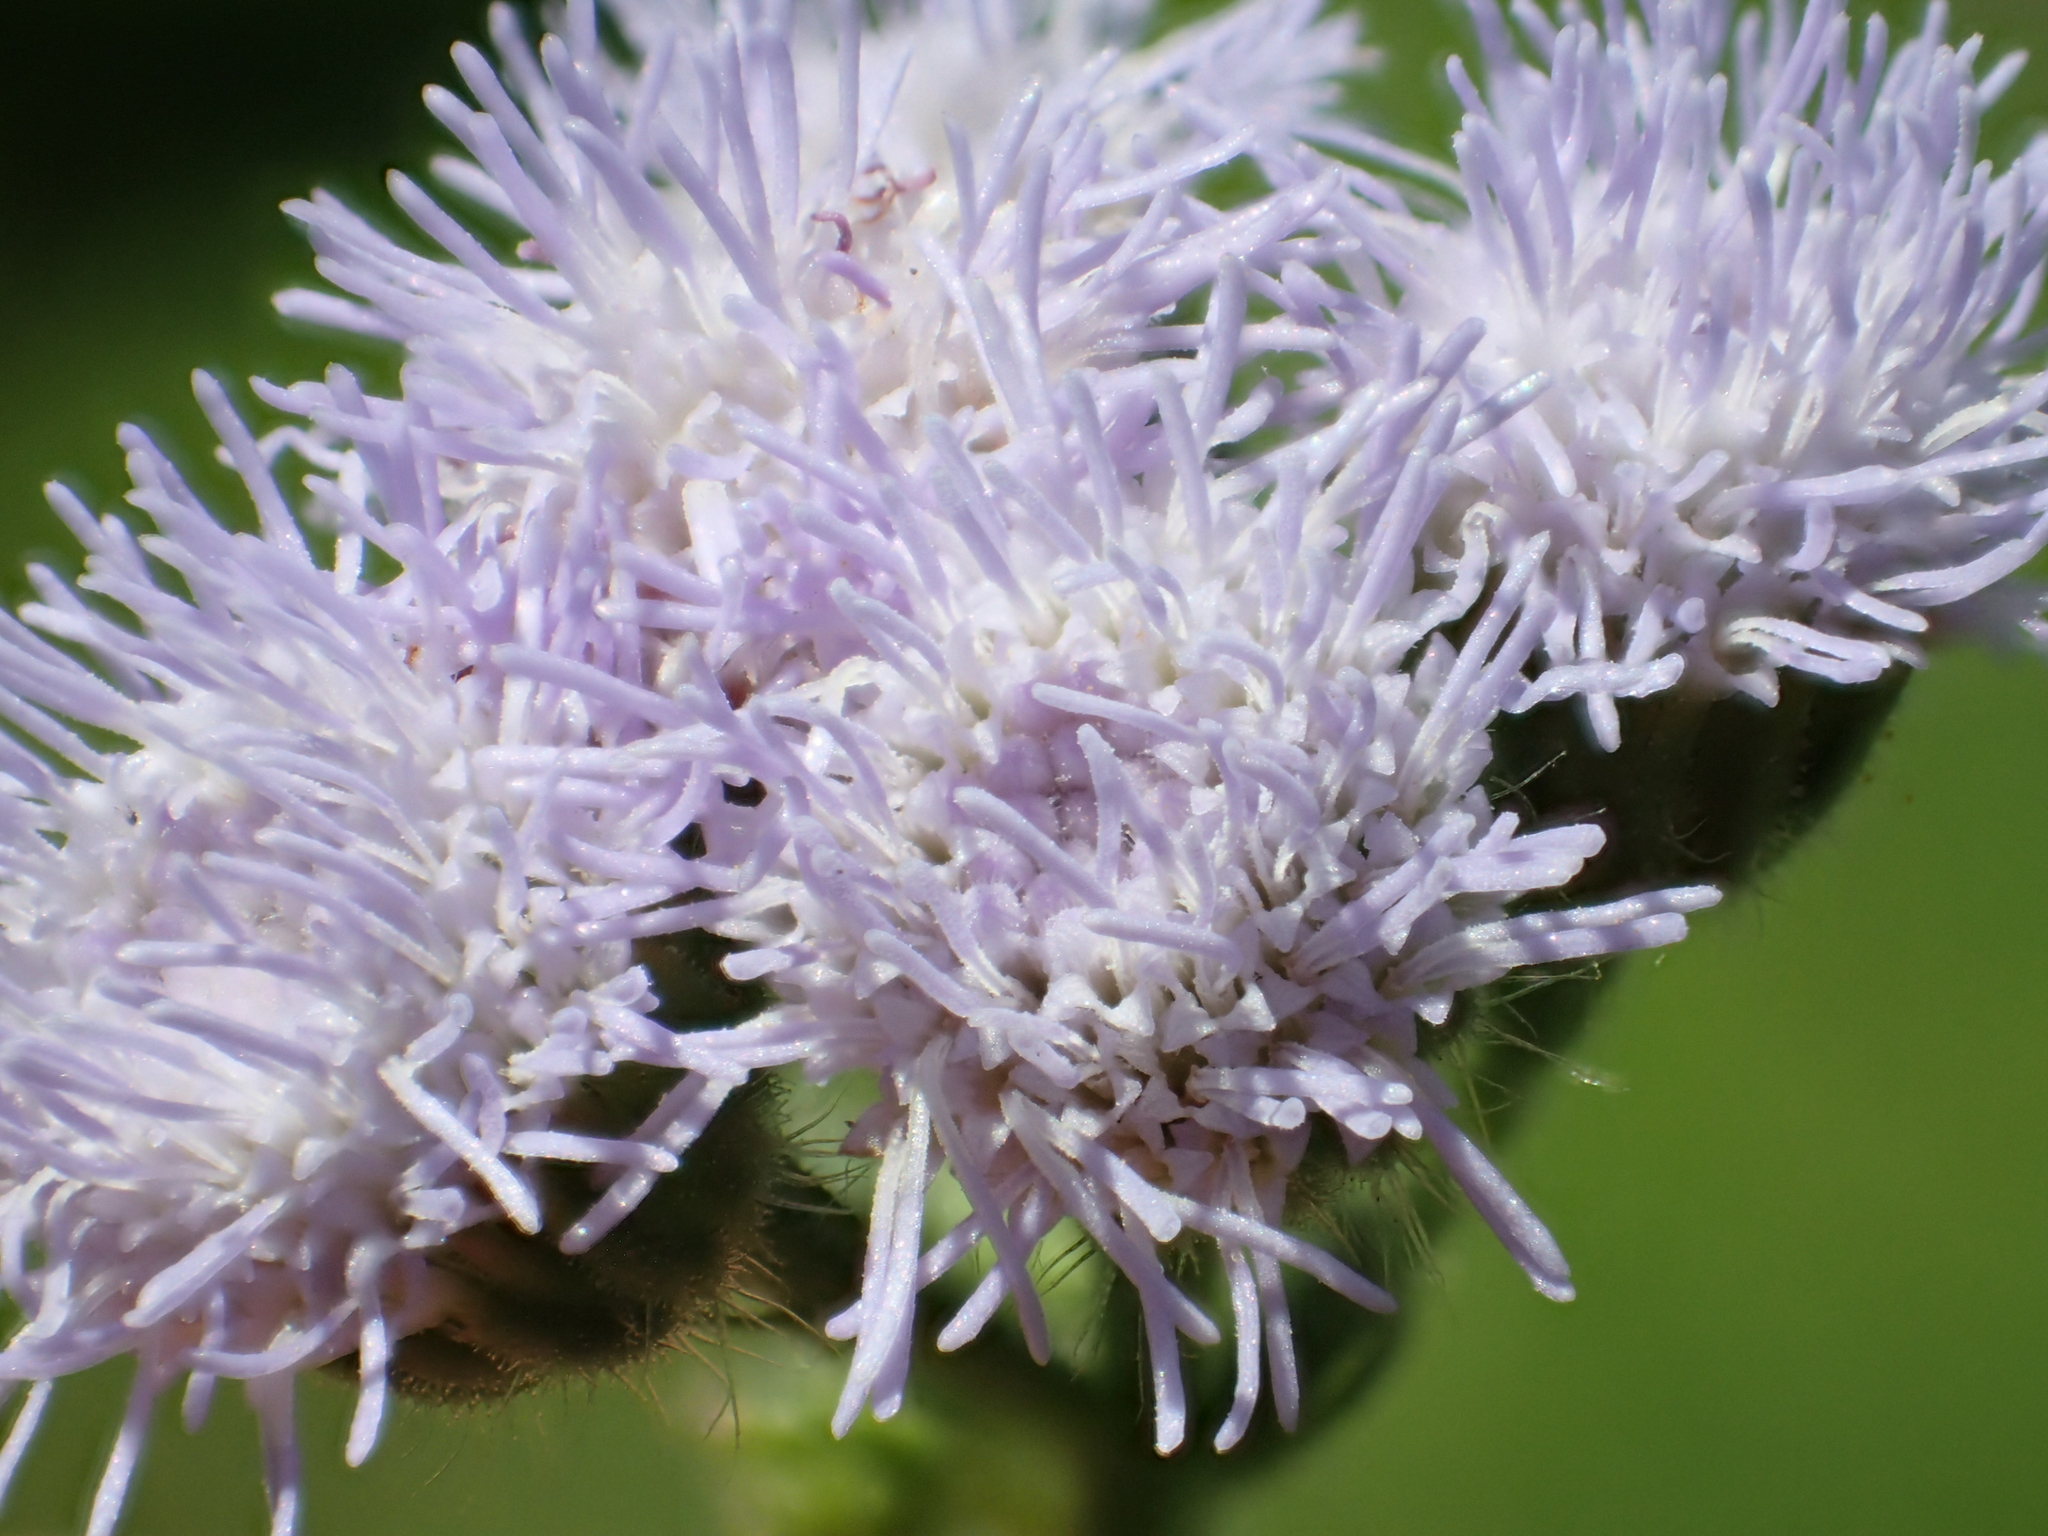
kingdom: Plantae
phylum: Tracheophyta
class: Magnoliopsida
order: Asterales
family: Asteraceae
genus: Ageratum
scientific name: Ageratum houstonianum
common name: Bluemink
